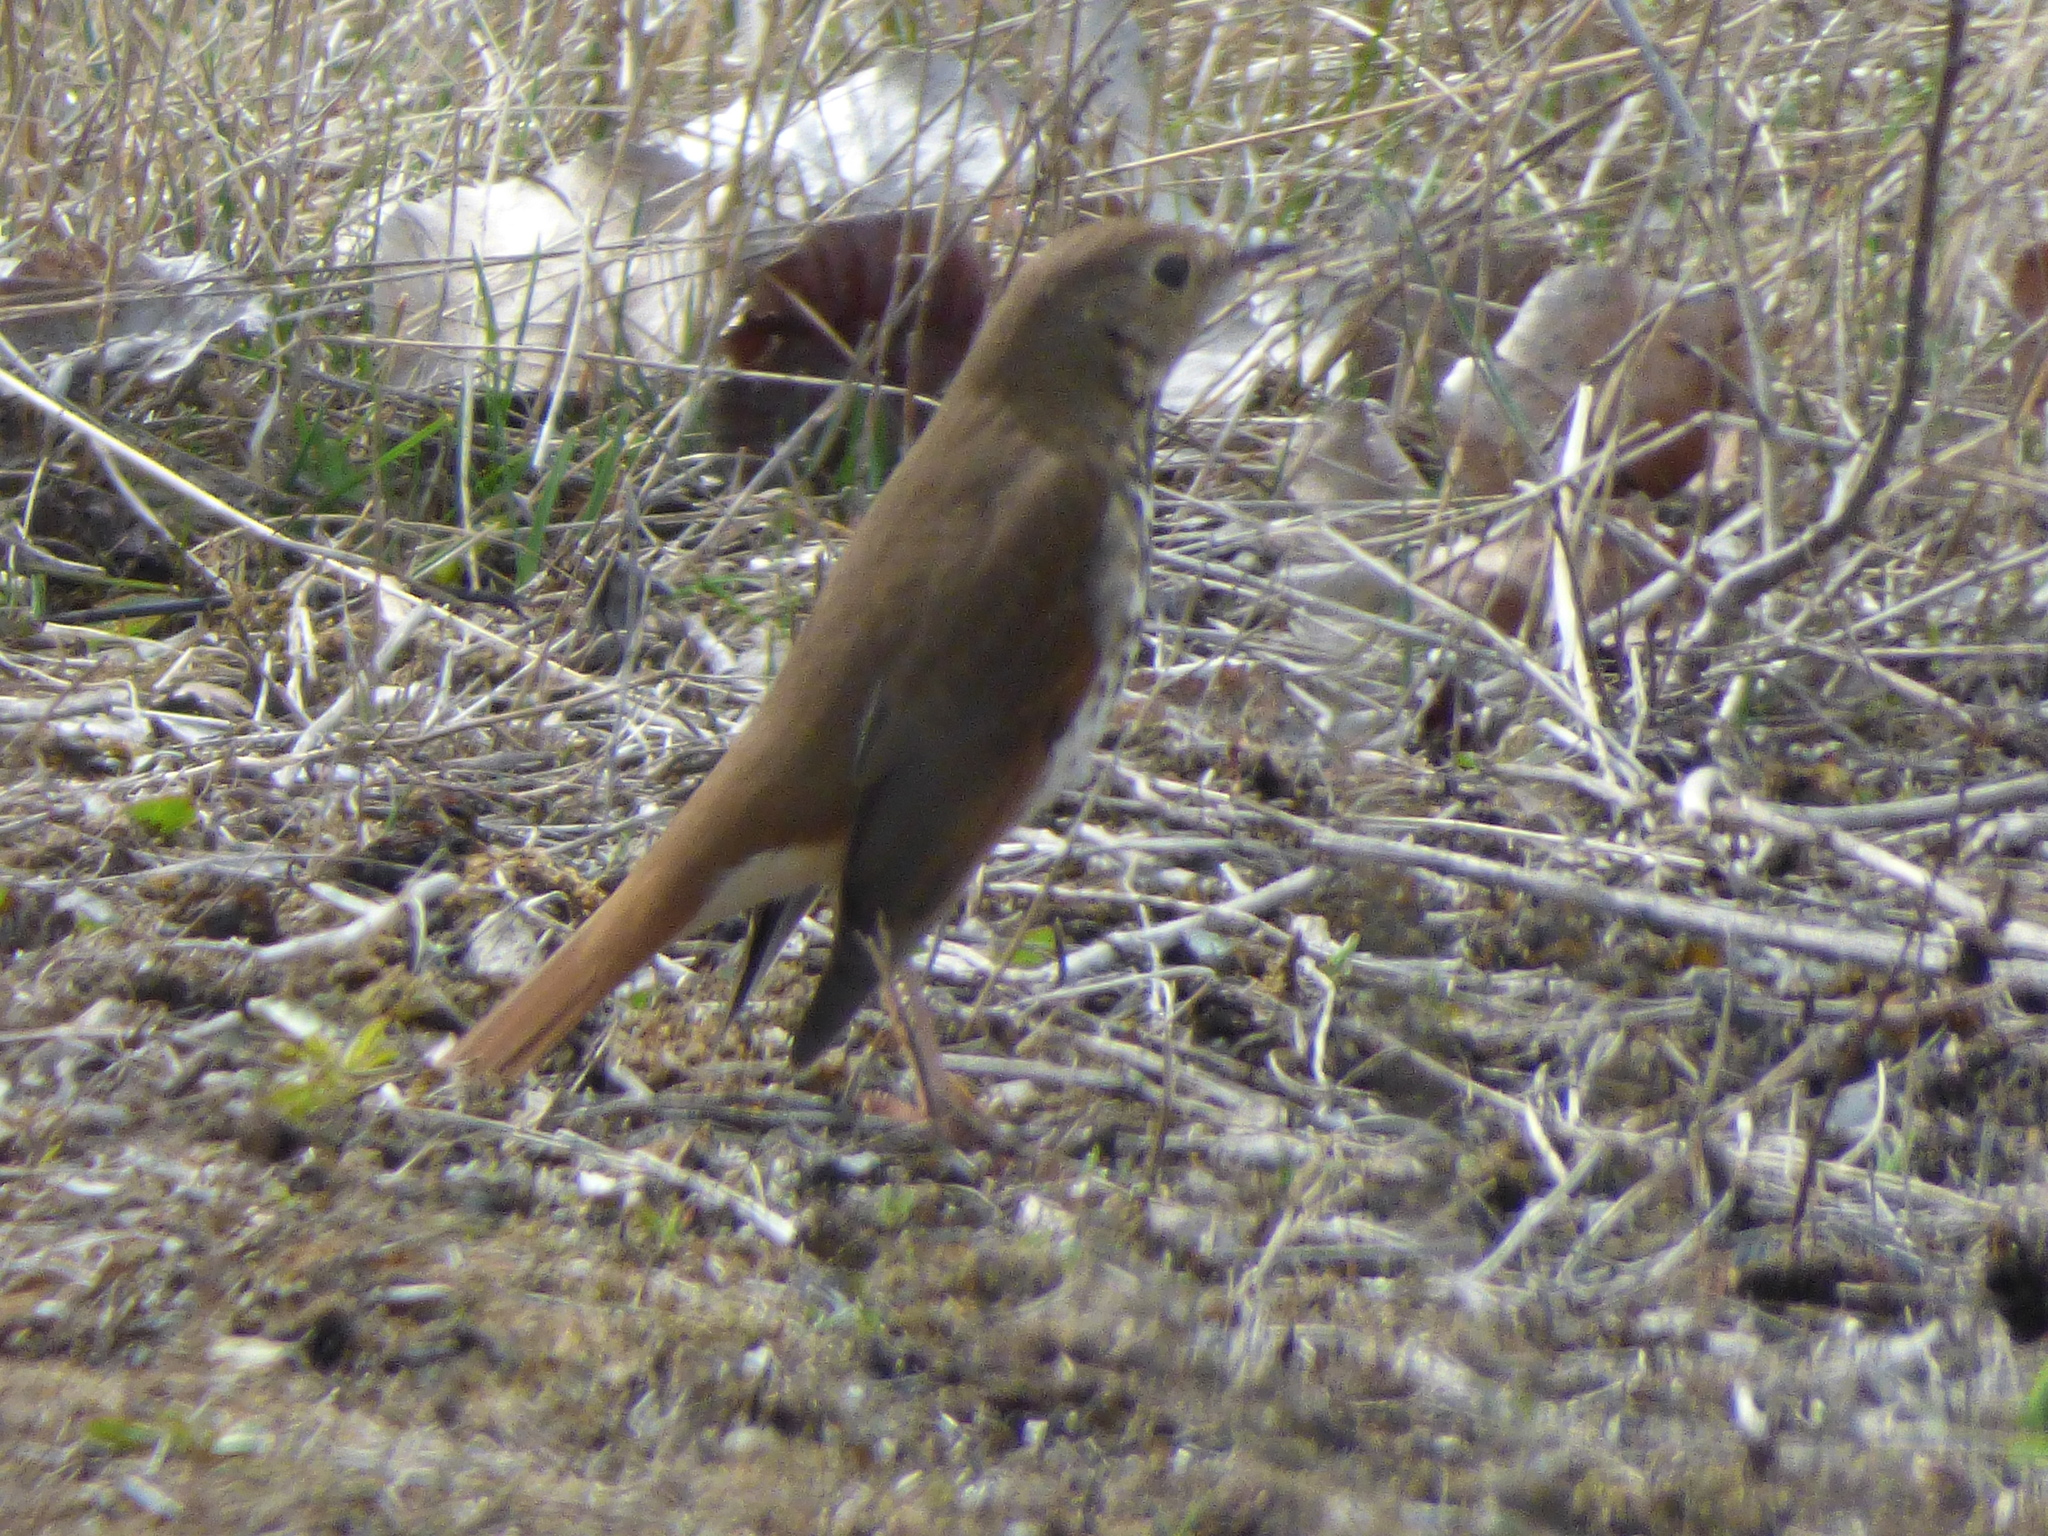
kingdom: Animalia
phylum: Chordata
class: Aves
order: Passeriformes
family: Turdidae
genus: Catharus
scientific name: Catharus guttatus
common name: Hermit thrush
